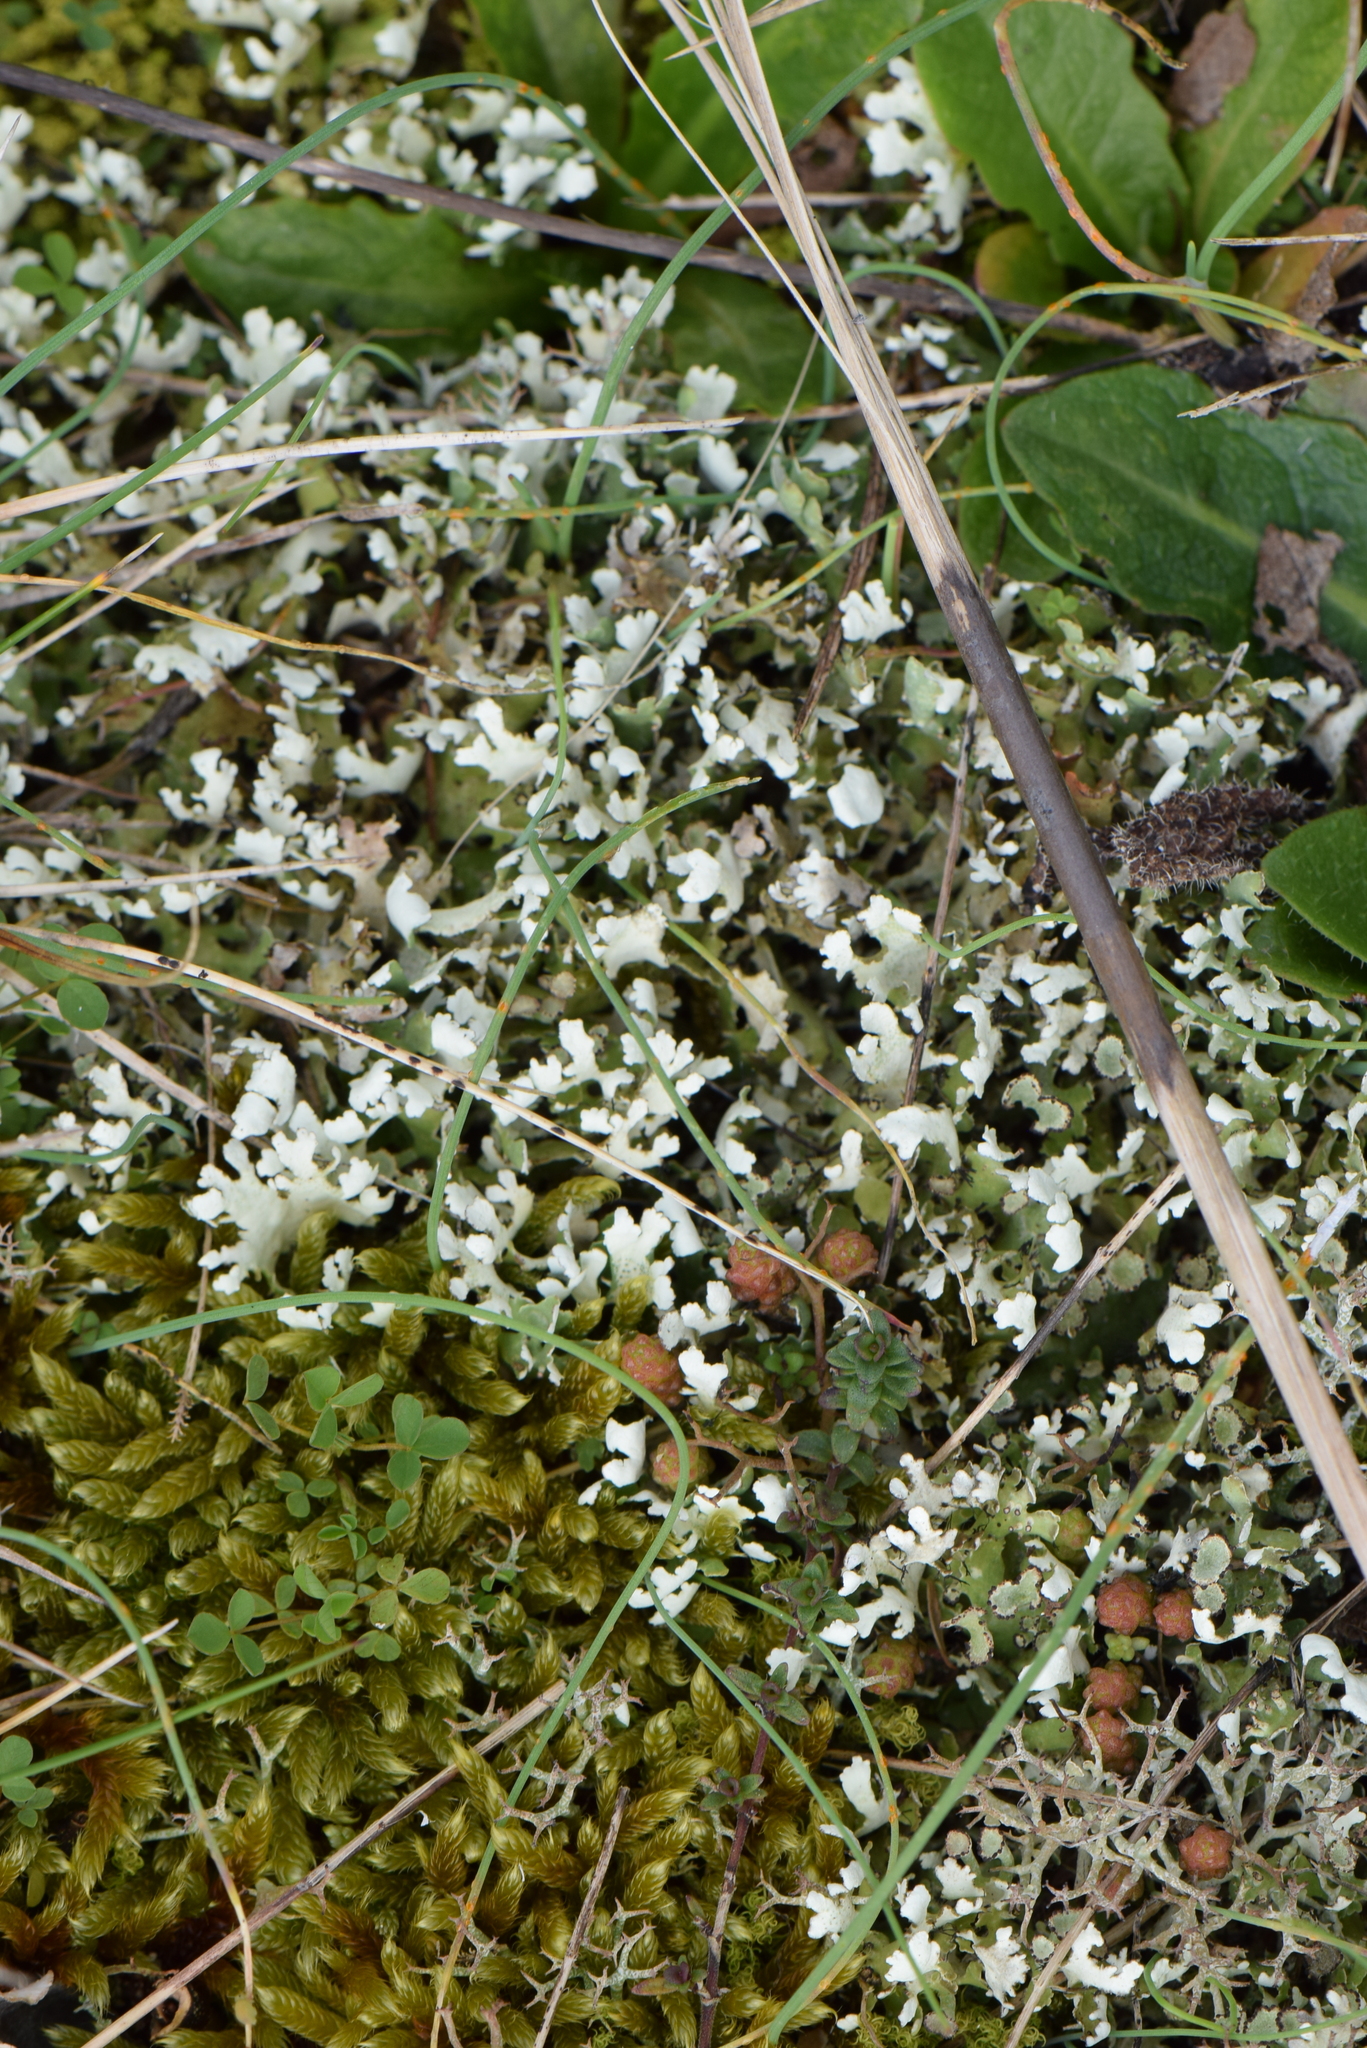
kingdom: Fungi
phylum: Ascomycota
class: Lecanoromycetes
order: Lecanorales
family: Cladoniaceae
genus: Cladonia
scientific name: Cladonia foliacea
